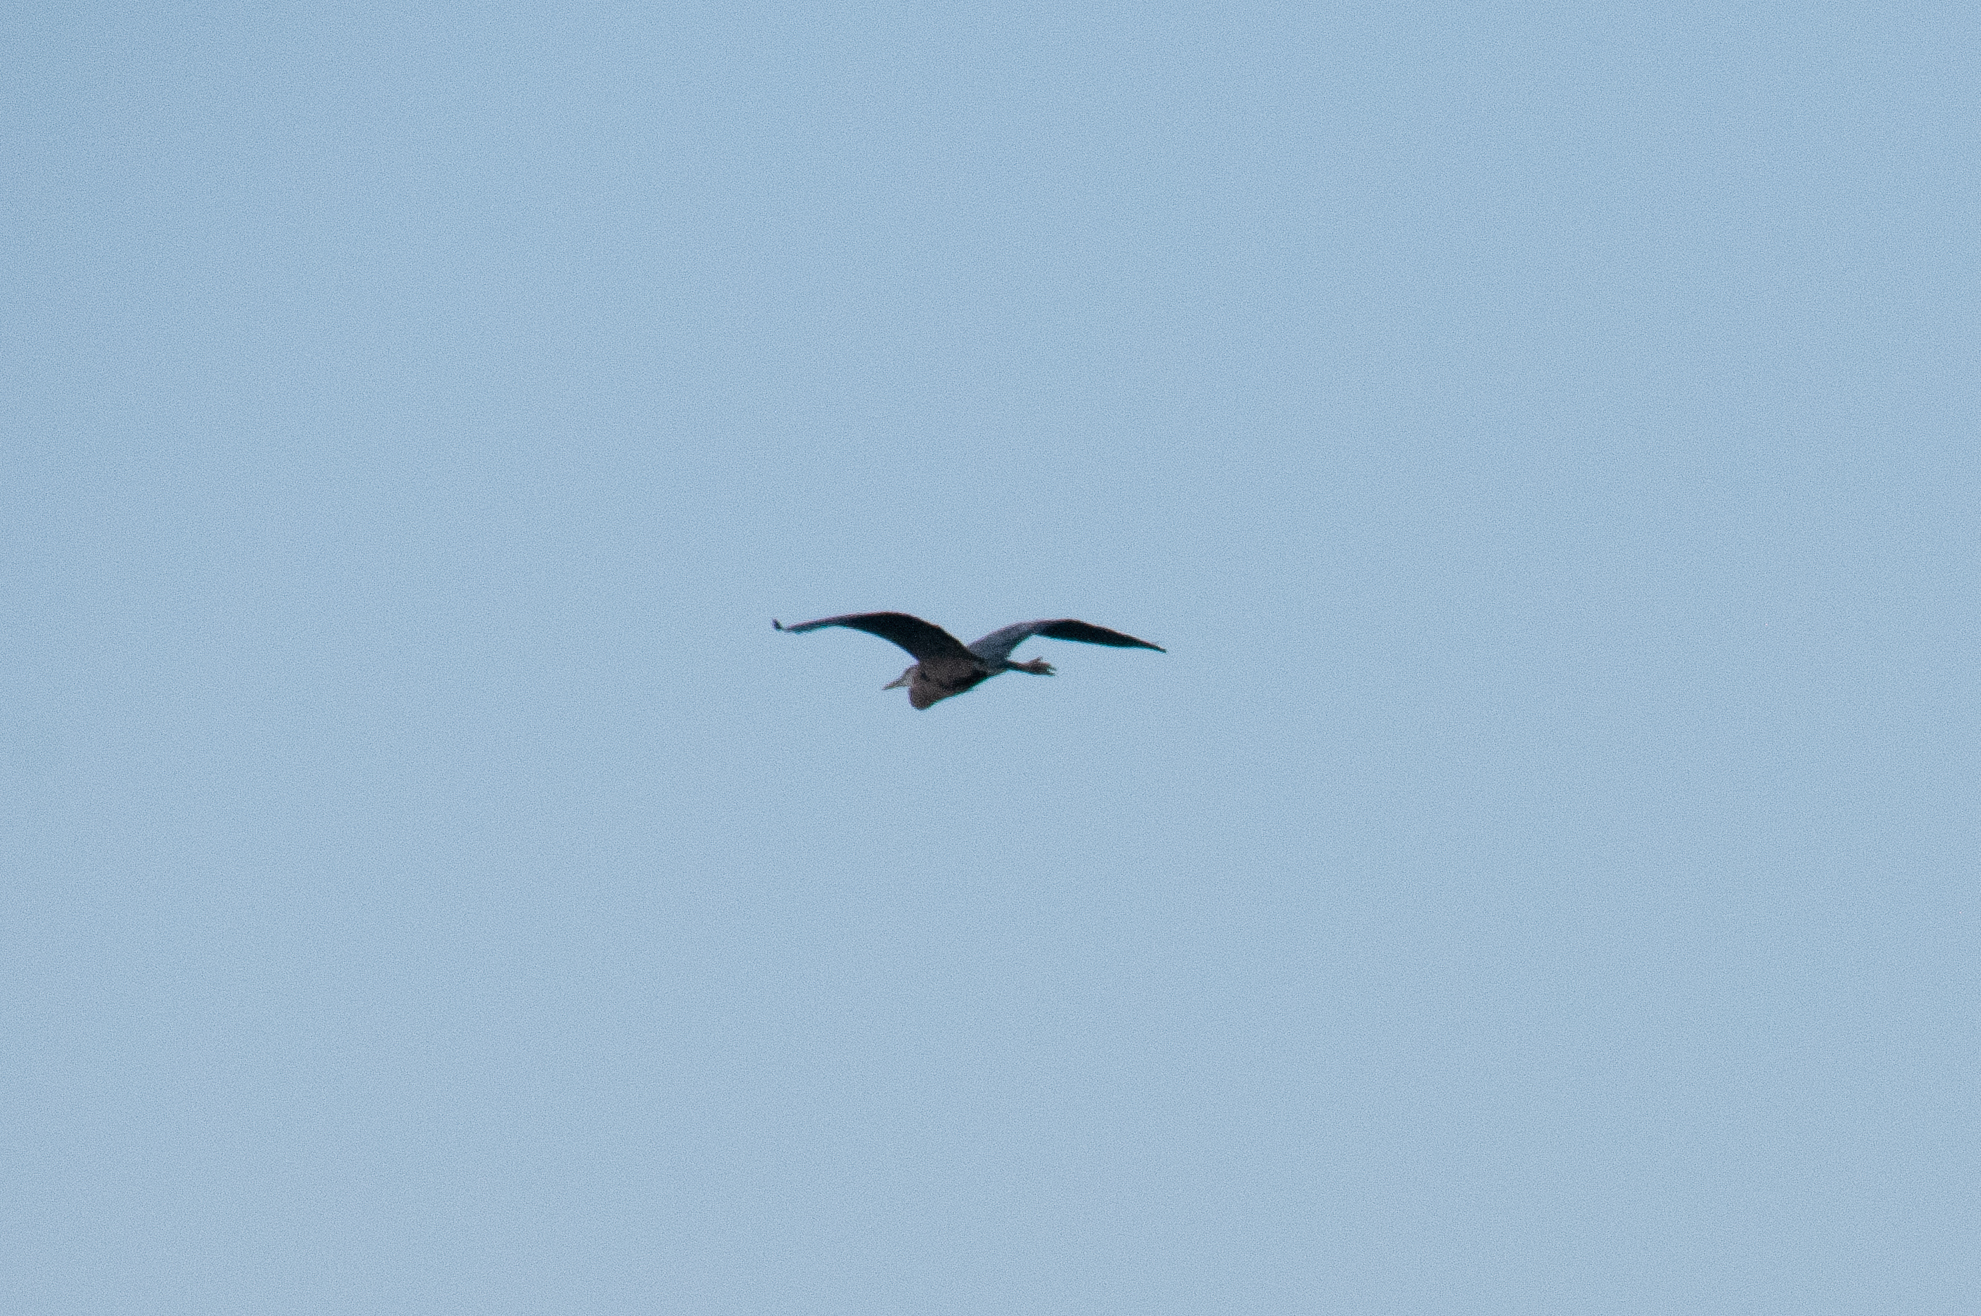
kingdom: Animalia
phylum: Chordata
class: Aves
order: Pelecaniformes
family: Ardeidae
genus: Ardea
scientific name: Ardea herodias
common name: Great blue heron
